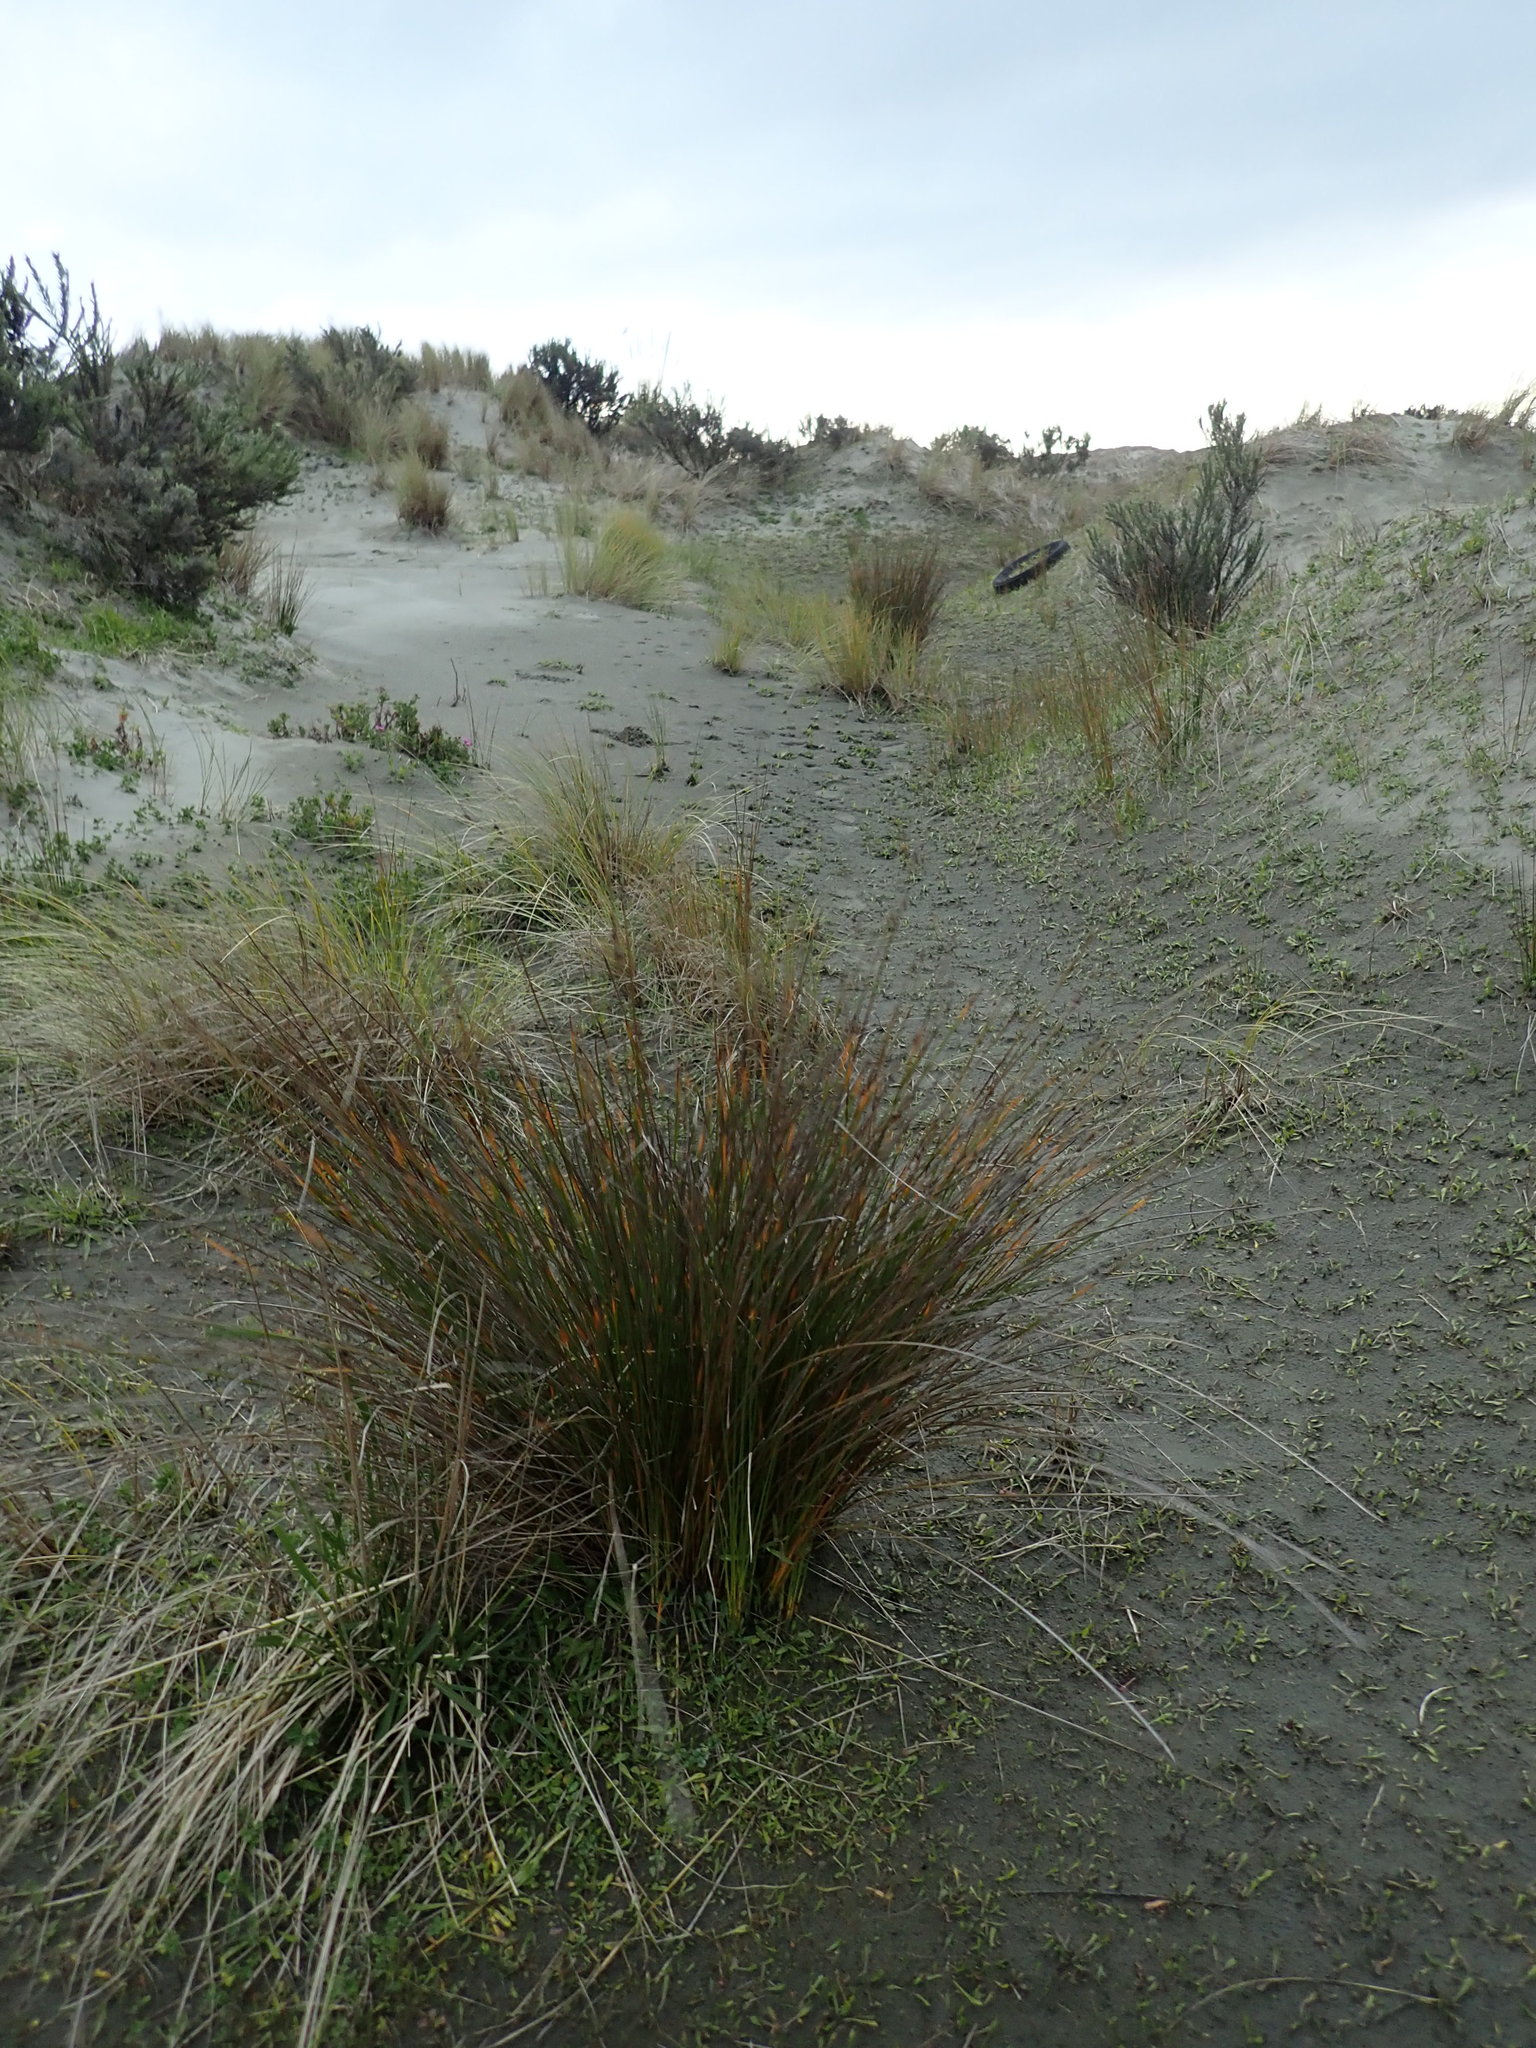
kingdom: Plantae
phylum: Tracheophyta
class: Liliopsida
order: Poales
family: Cyperaceae
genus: Ficinia
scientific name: Ficinia nodosa
